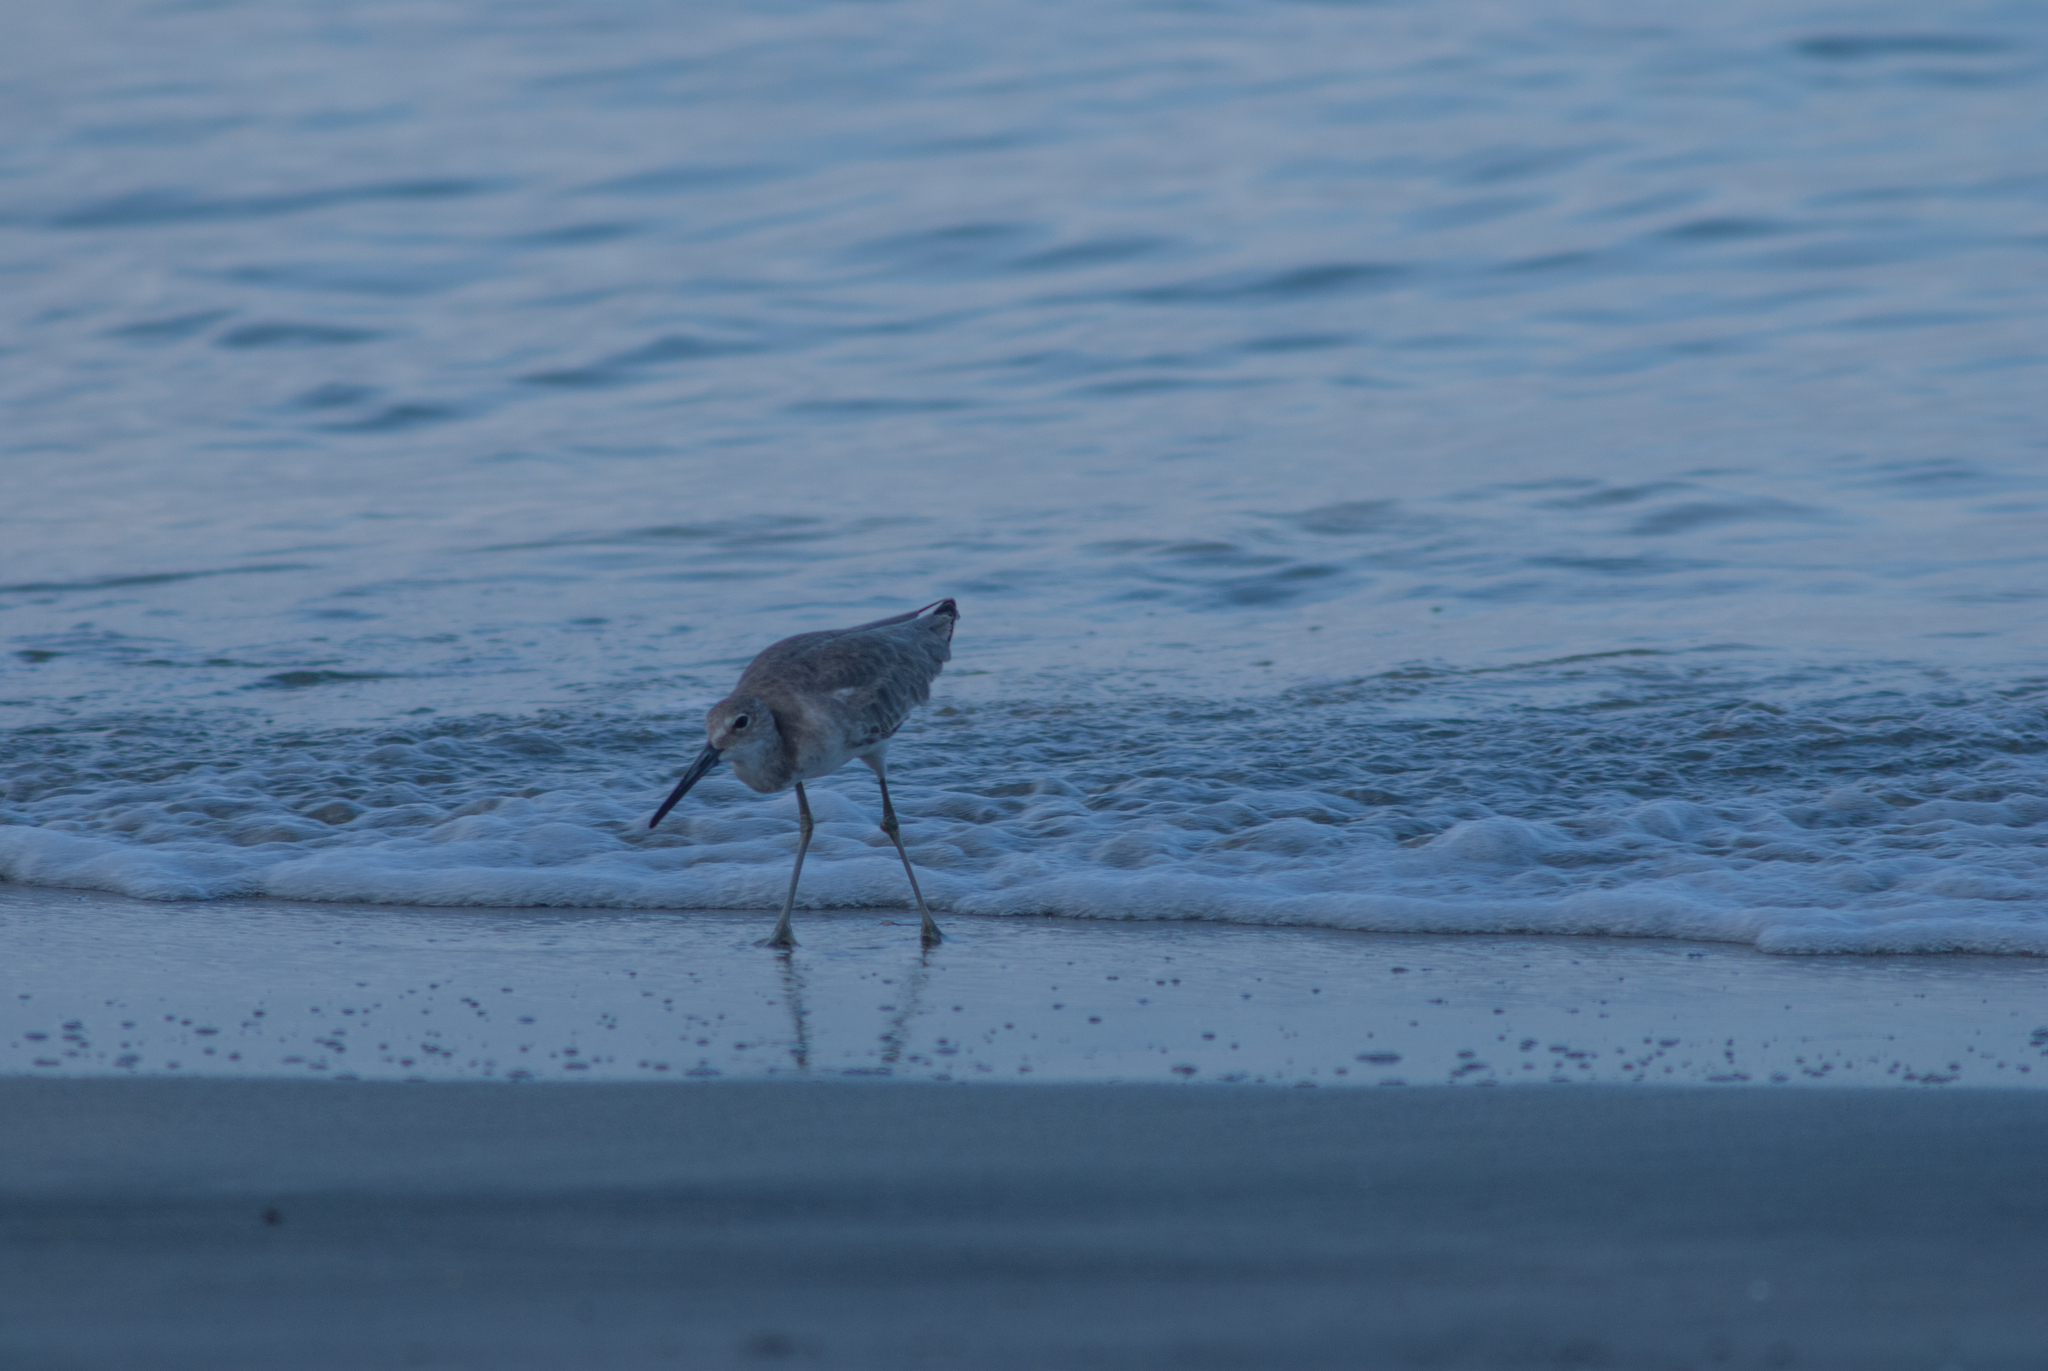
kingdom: Animalia
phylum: Chordata
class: Aves
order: Charadriiformes
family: Scolopacidae
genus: Tringa
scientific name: Tringa semipalmata
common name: Willet
